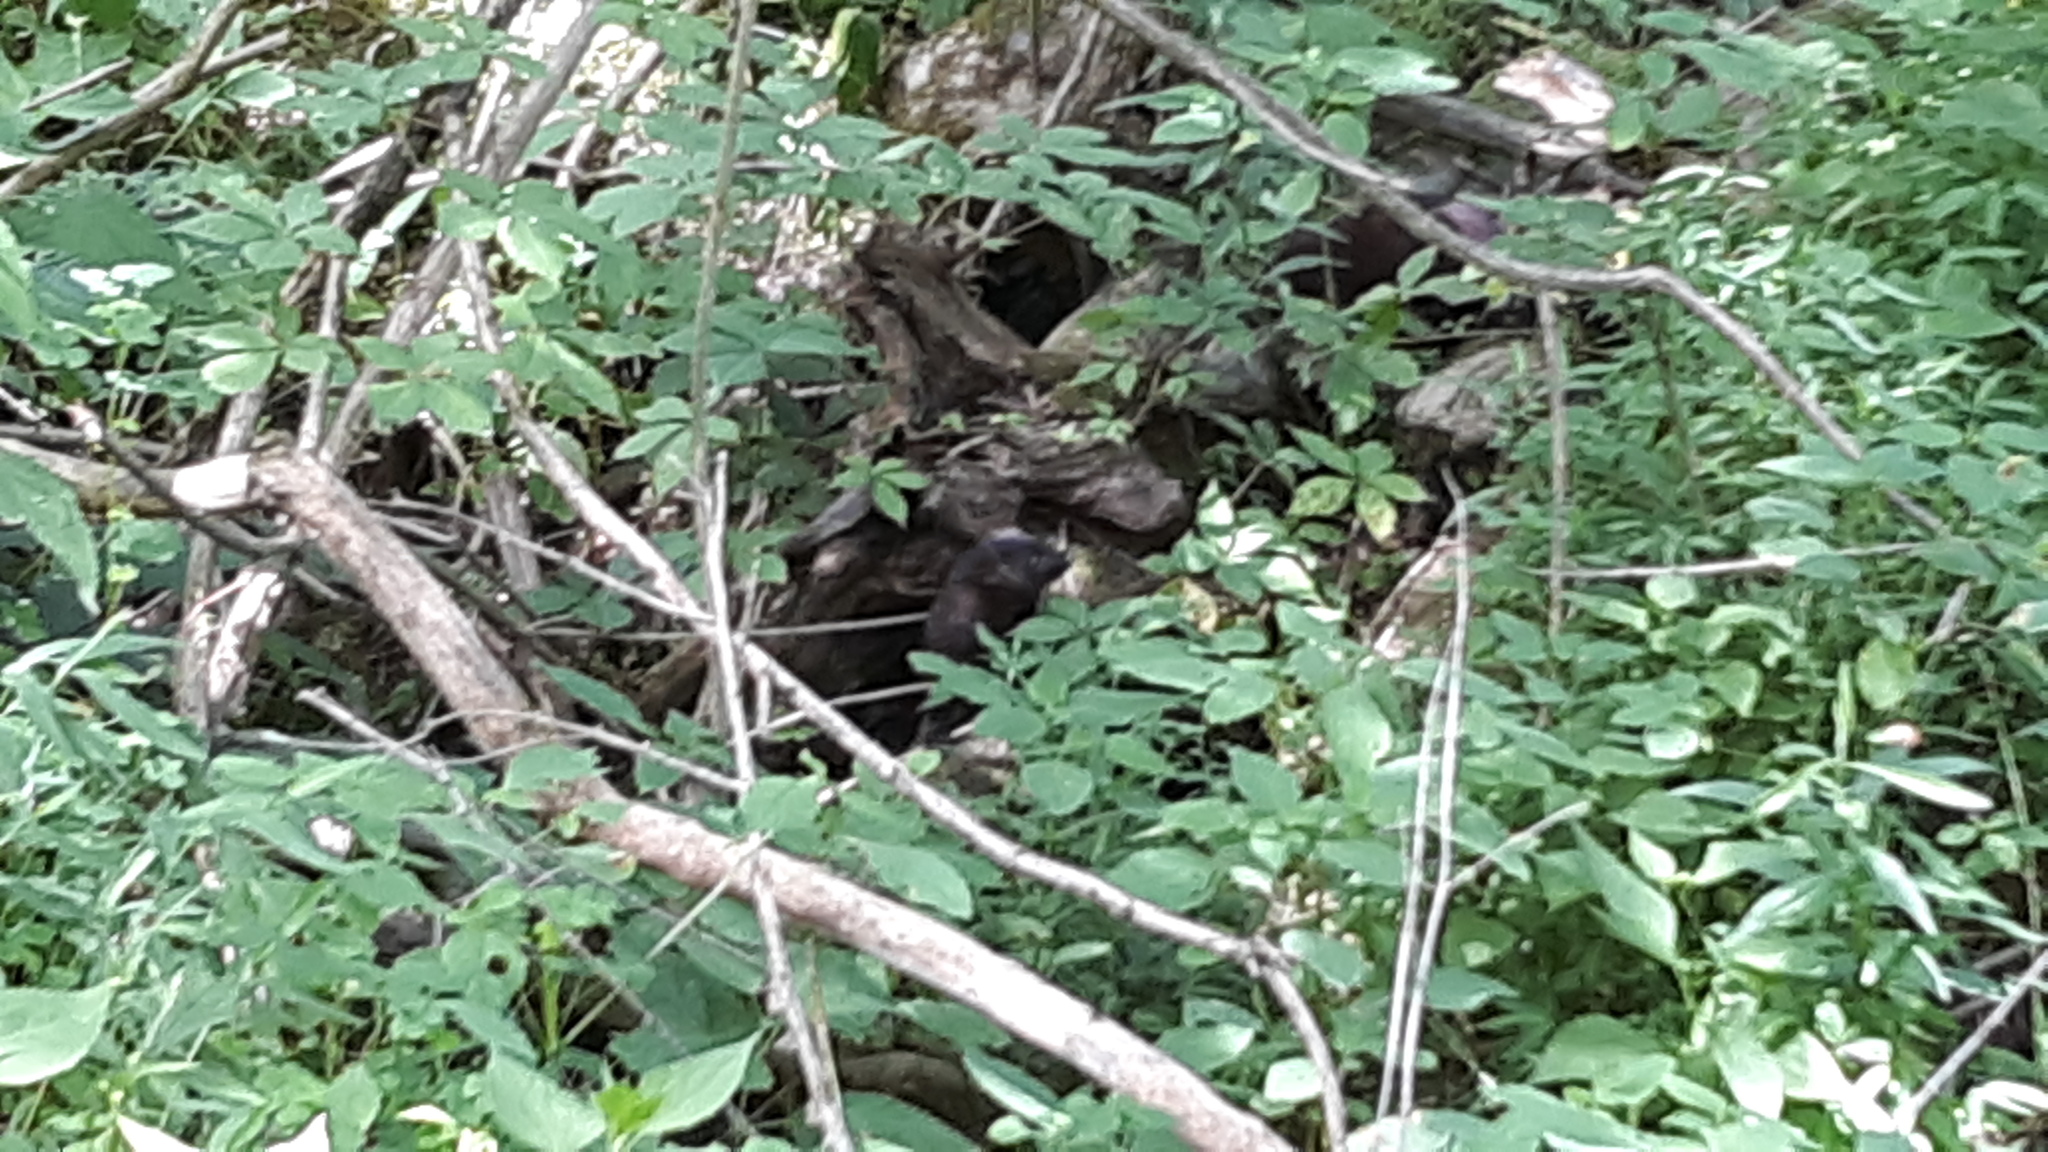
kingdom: Animalia
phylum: Chordata
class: Mammalia
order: Carnivora
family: Mustelidae
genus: Mustela
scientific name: Mustela
